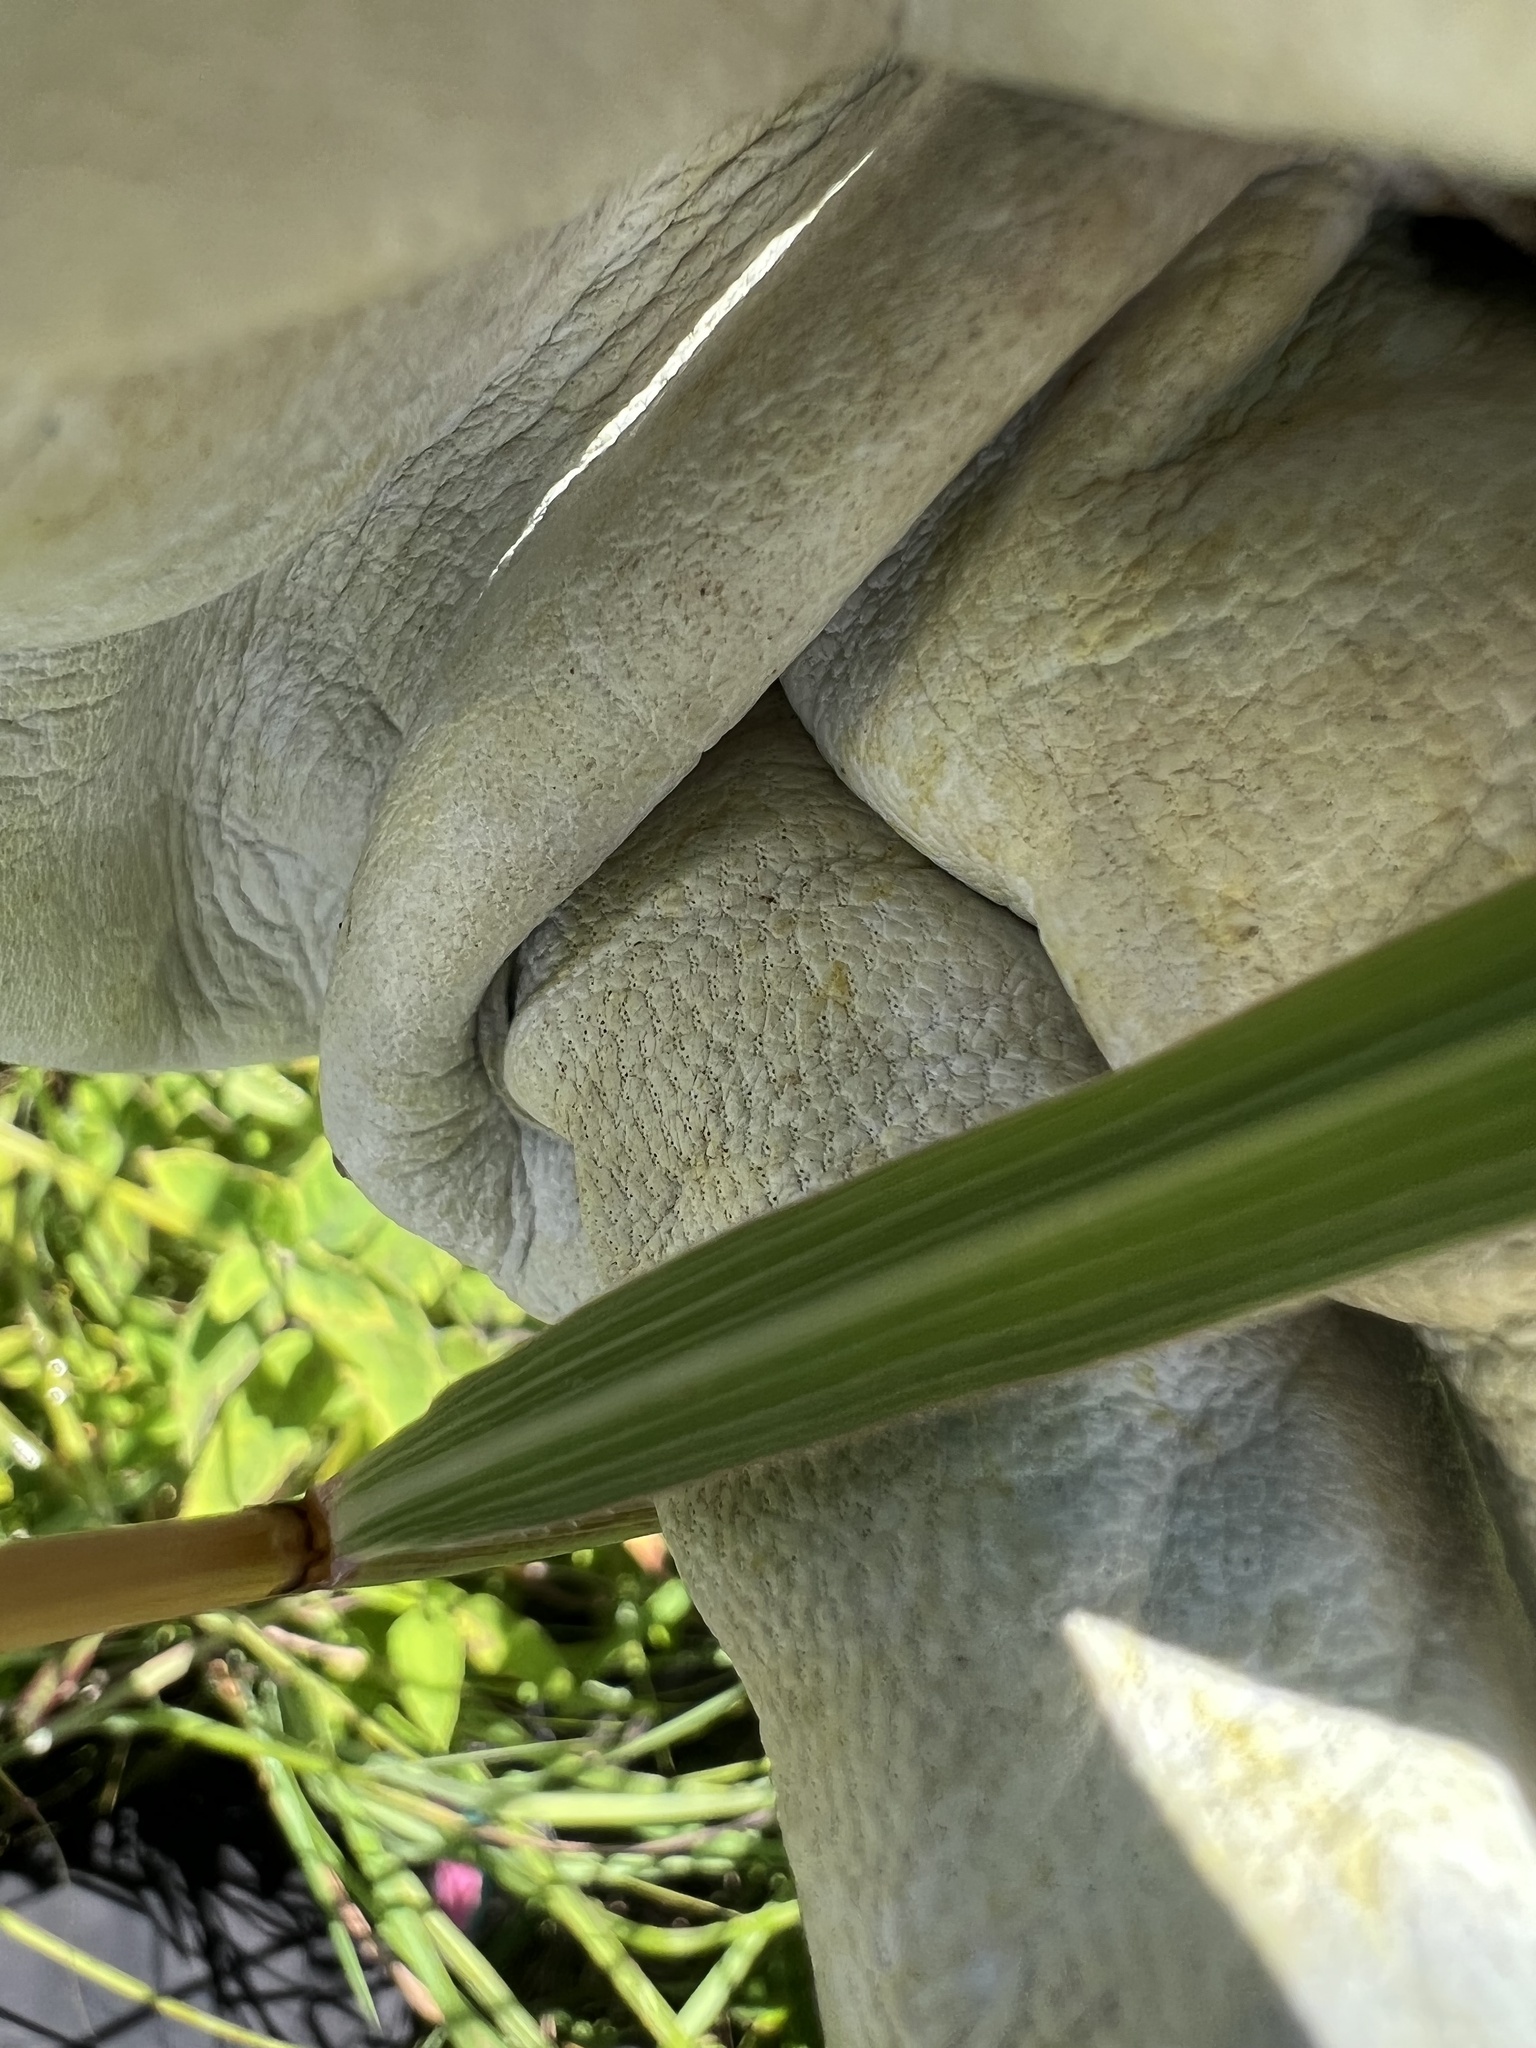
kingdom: Plantae
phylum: Tracheophyta
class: Liliopsida
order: Poales
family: Poaceae
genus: Sorghastrum
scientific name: Sorghastrum nutans
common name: Indian grass
